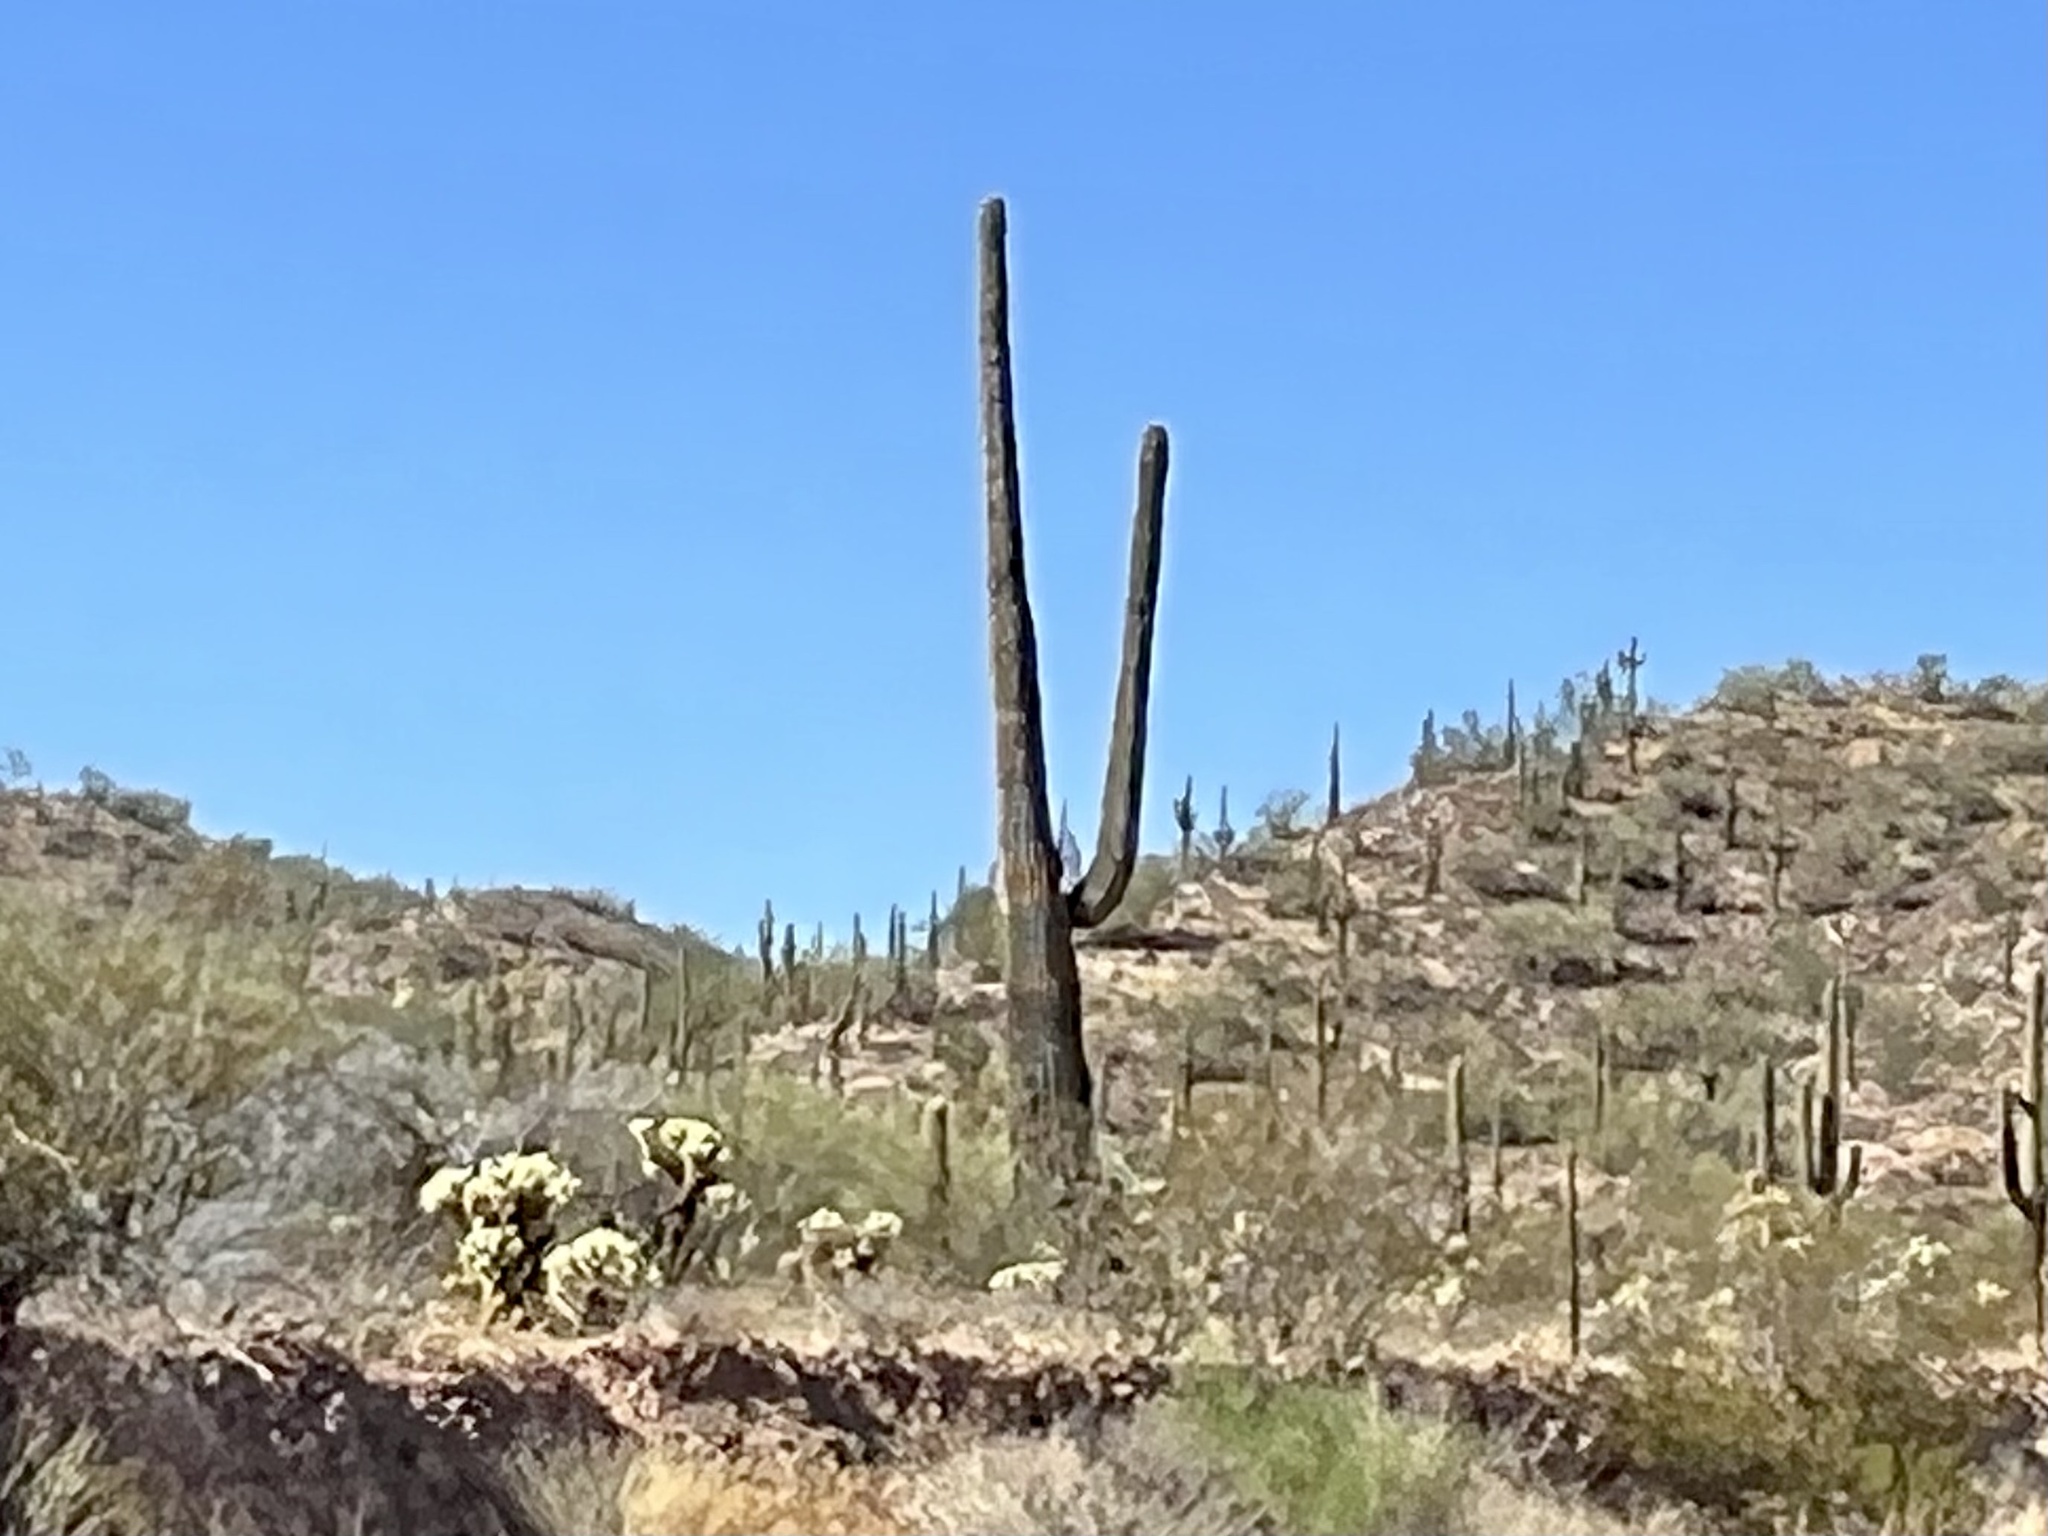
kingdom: Plantae
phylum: Tracheophyta
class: Magnoliopsida
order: Caryophyllales
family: Cactaceae
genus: Carnegiea
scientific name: Carnegiea gigantea
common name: Saguaro
